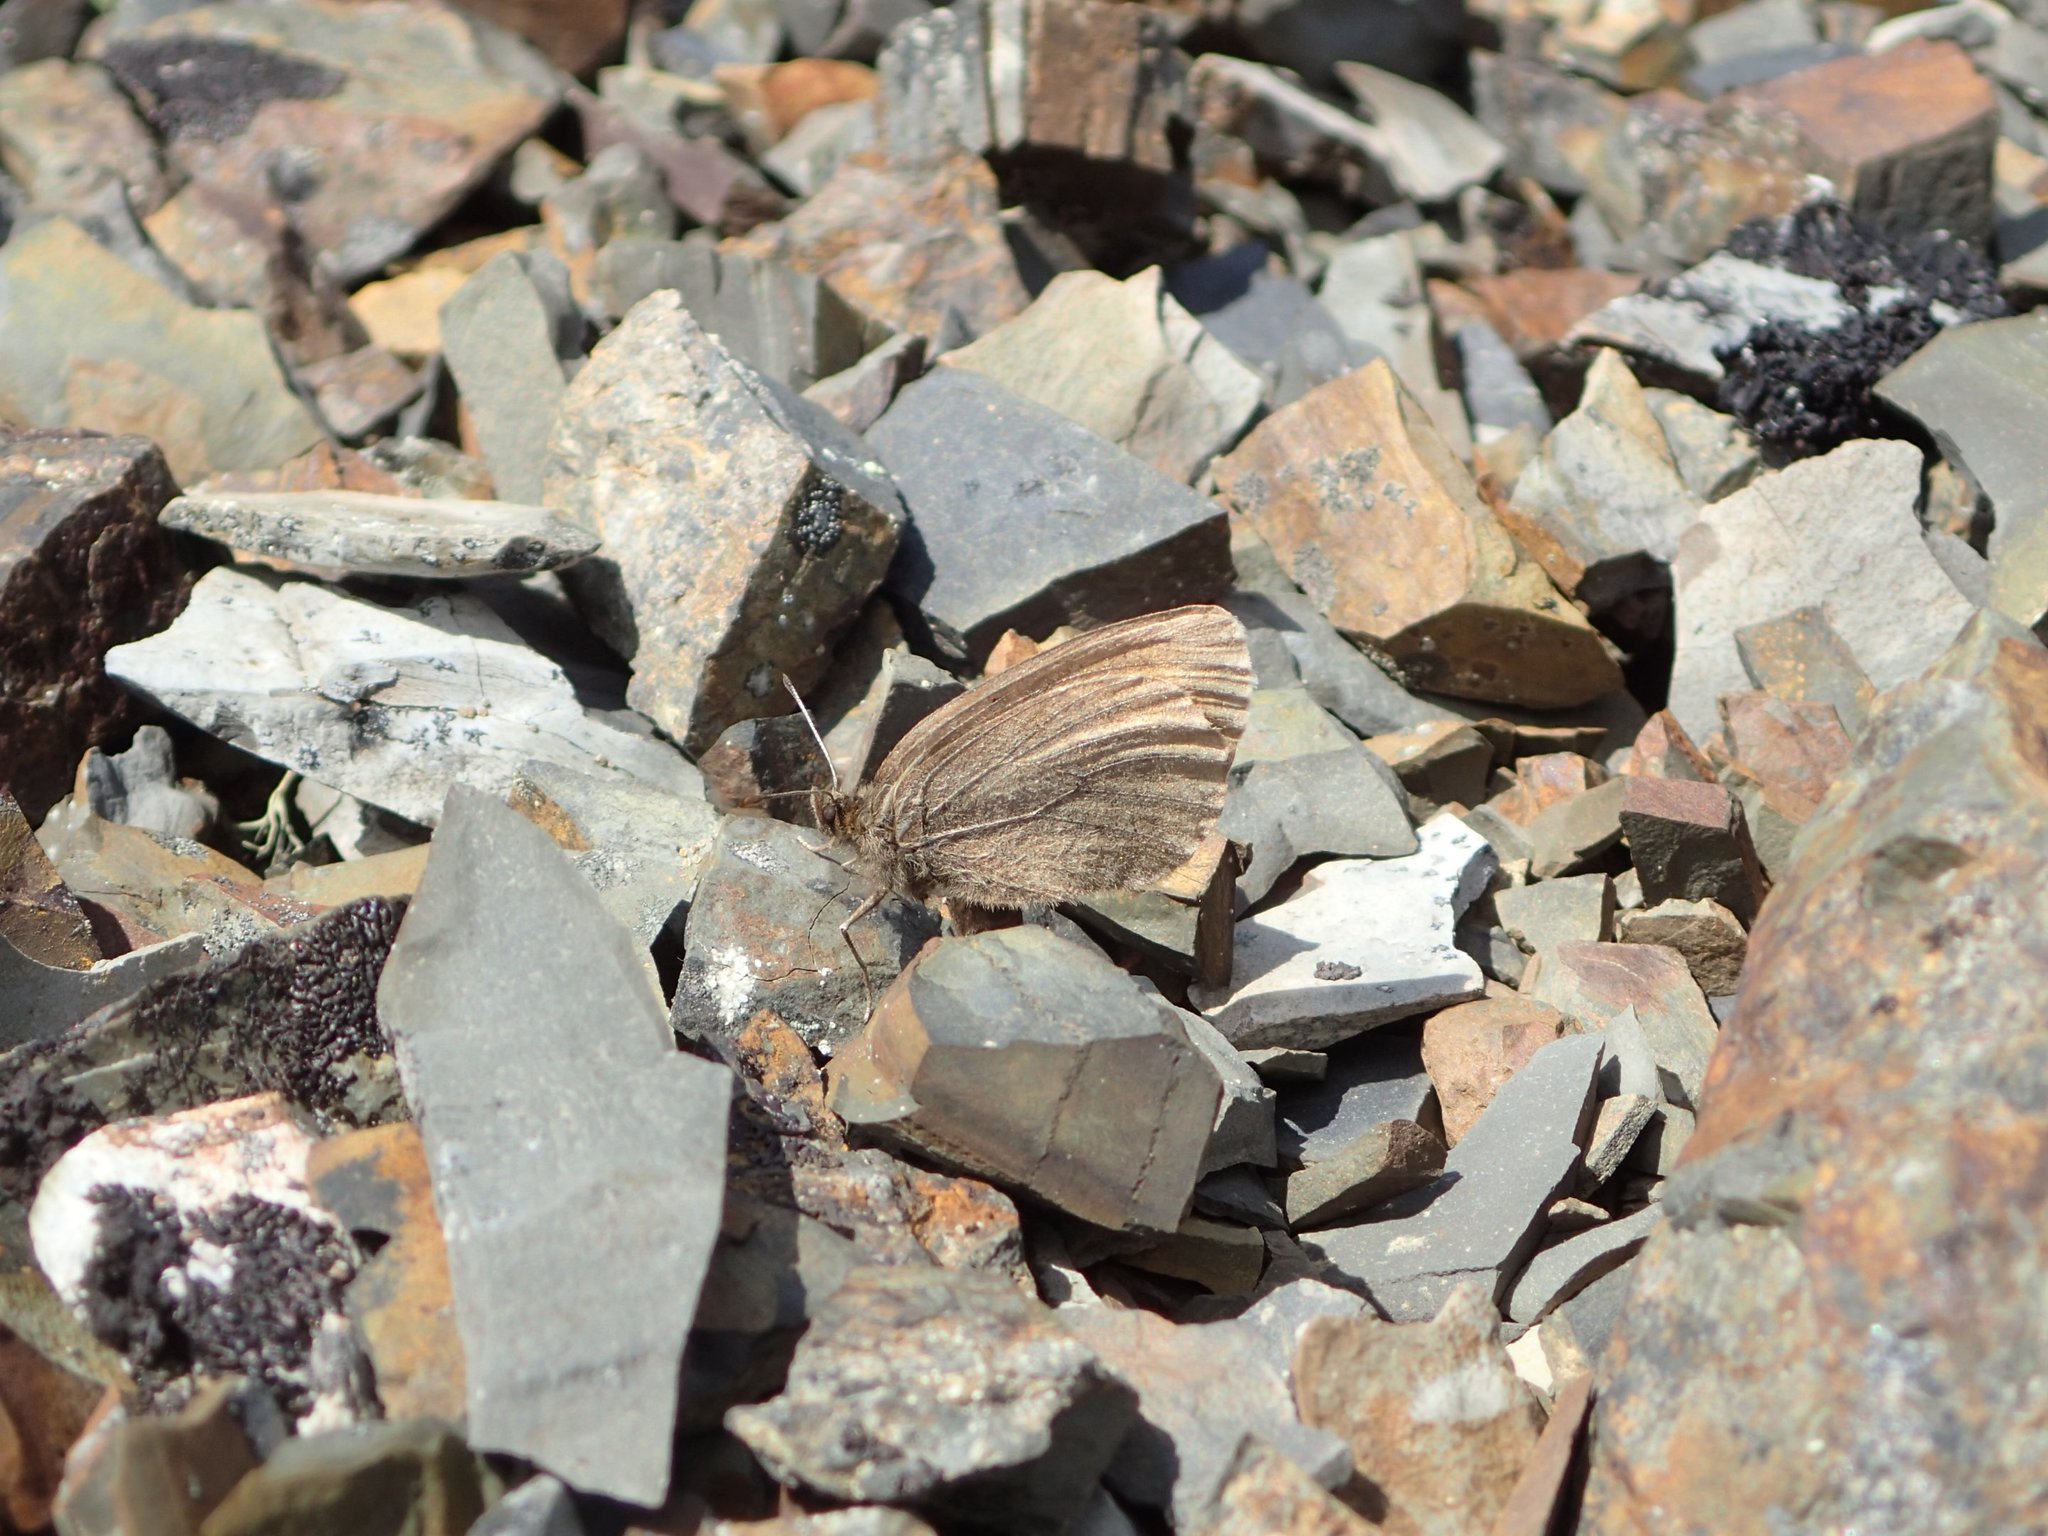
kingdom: Animalia
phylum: Arthropoda
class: Insecta
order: Lepidoptera
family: Nymphalidae
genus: Erebia
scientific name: Erebia occulta
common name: Eskimo alpine
